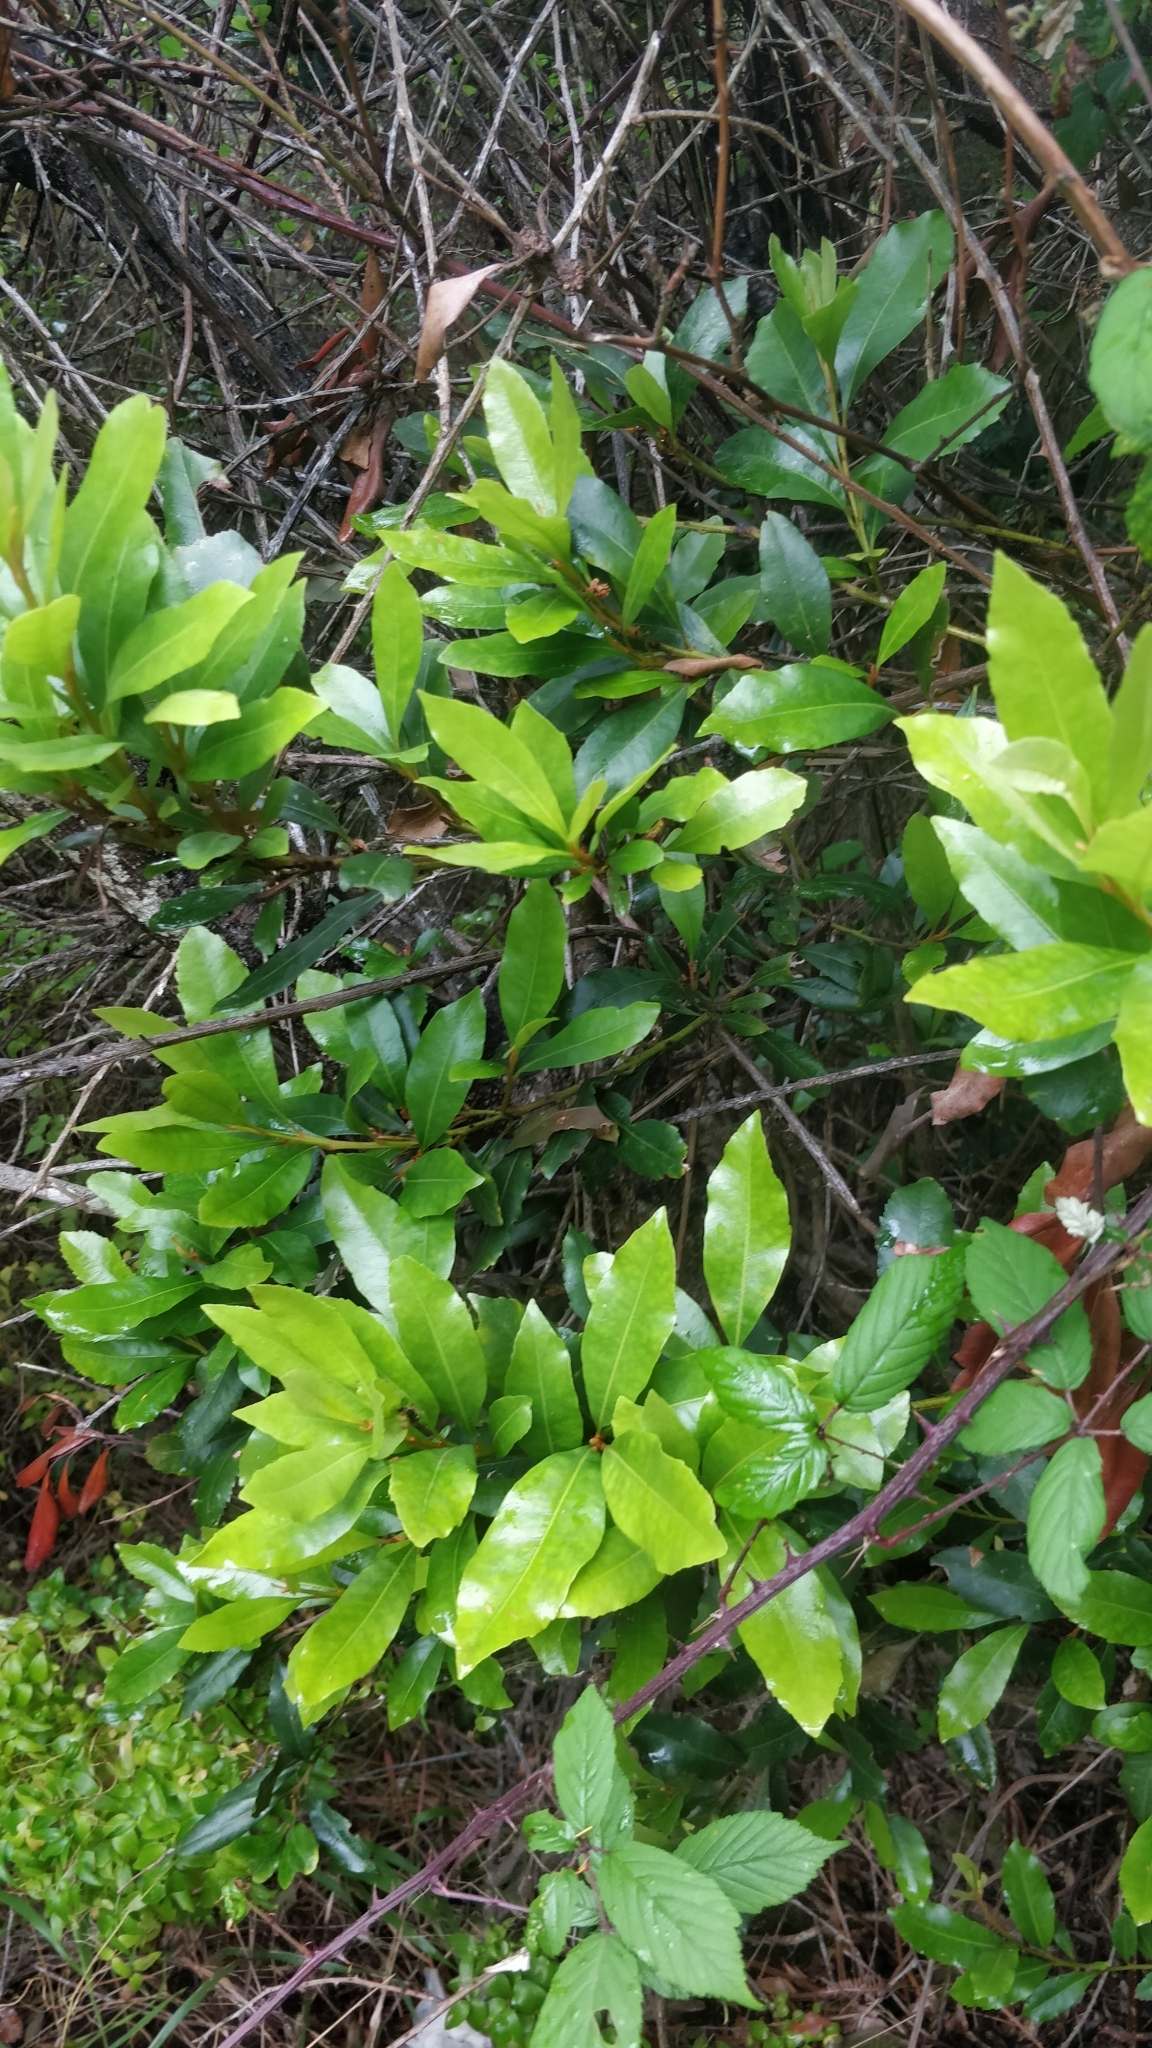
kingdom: Plantae
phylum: Tracheophyta
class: Magnoliopsida
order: Fagales
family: Myricaceae
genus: Morella
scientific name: Morella faya
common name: Firetree
